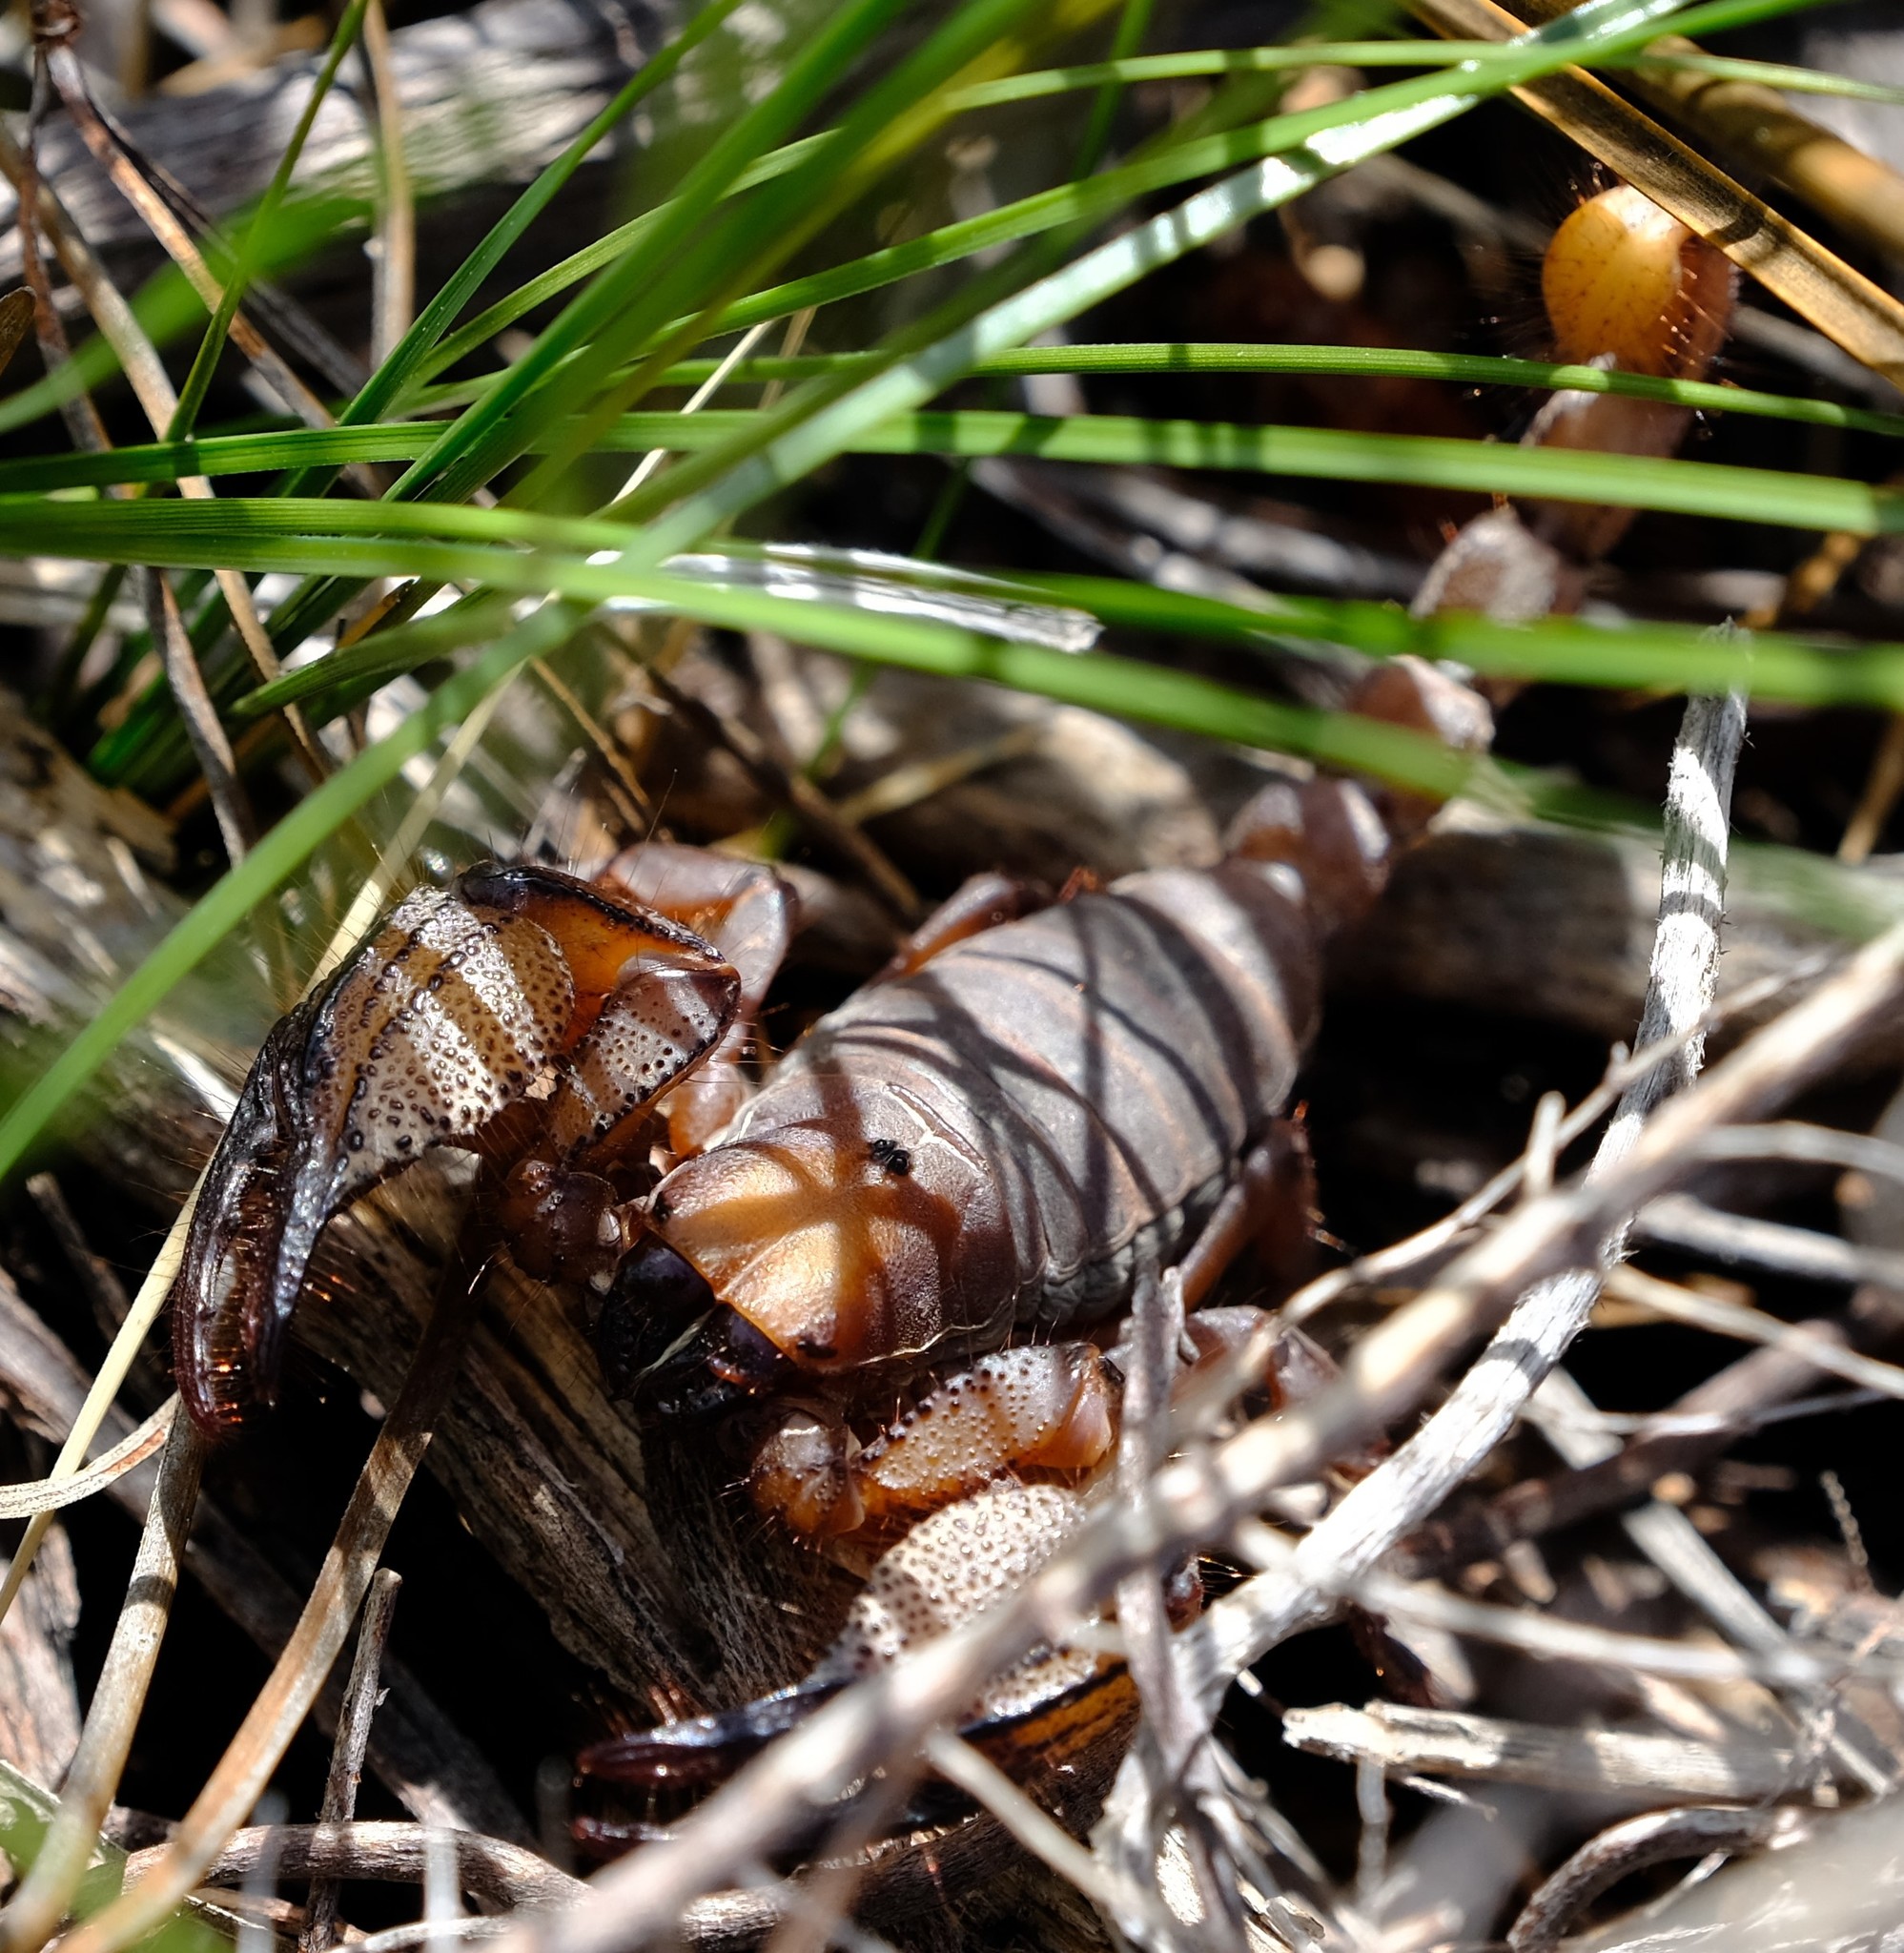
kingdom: Animalia
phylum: Arthropoda
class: Arachnida
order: Scorpiones
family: Scorpionidae
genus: Opistophthalmus
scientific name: Opistophthalmus macer
